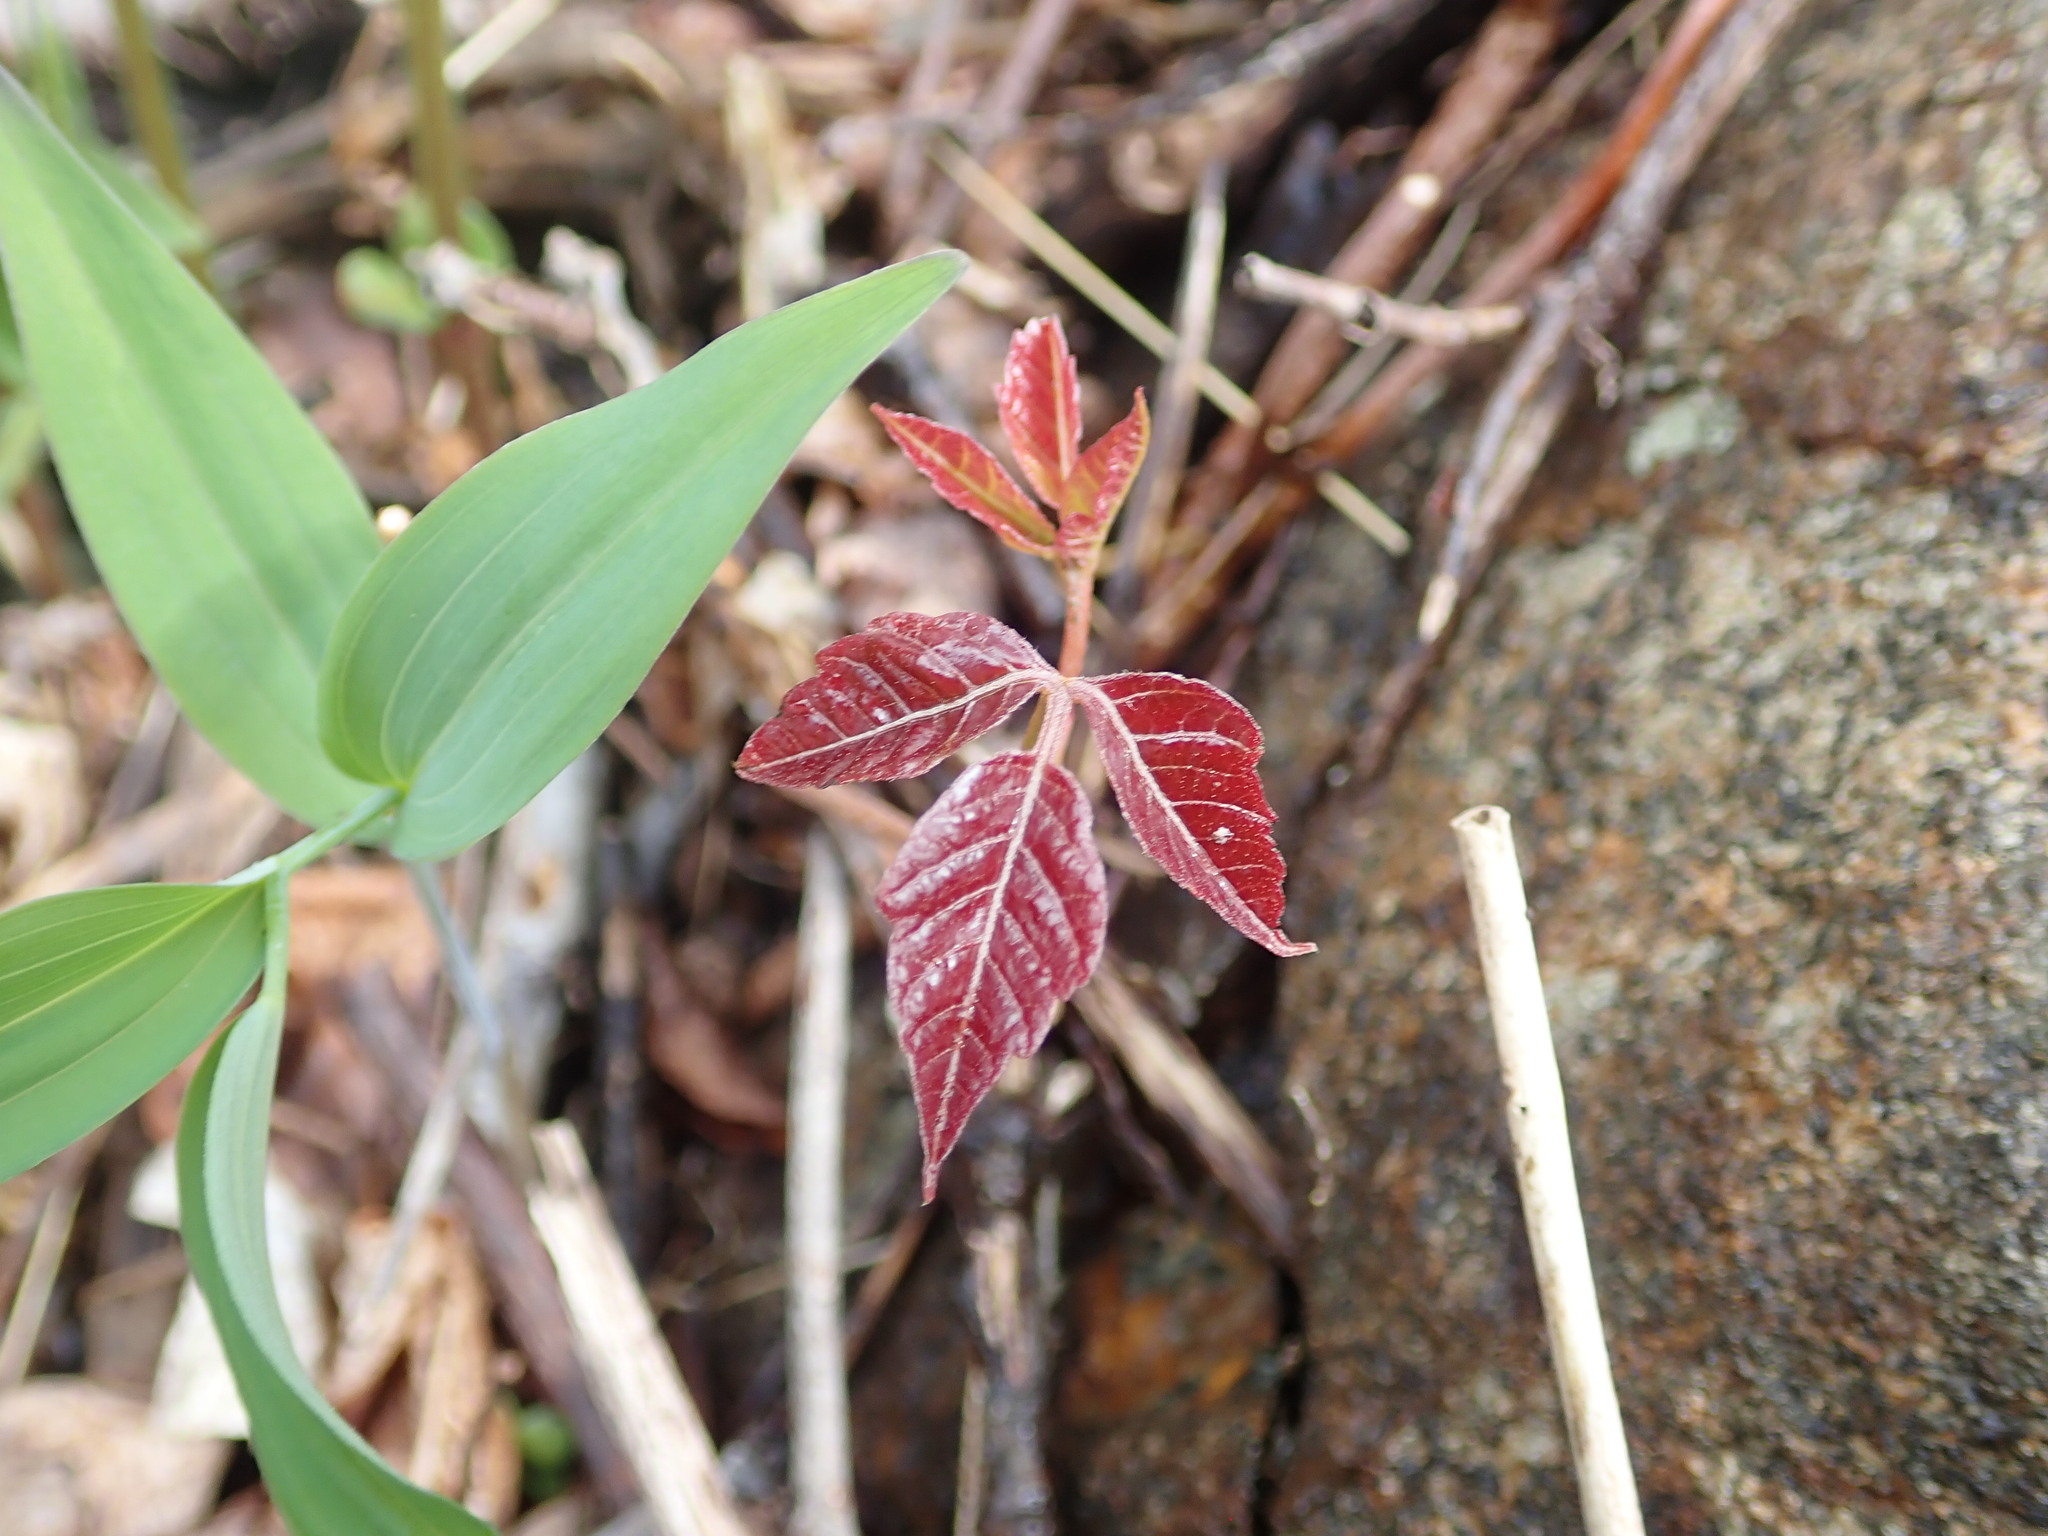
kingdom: Plantae
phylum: Tracheophyta
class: Magnoliopsida
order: Sapindales
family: Anacardiaceae
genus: Toxicodendron
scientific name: Toxicodendron radicans
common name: Poison ivy
